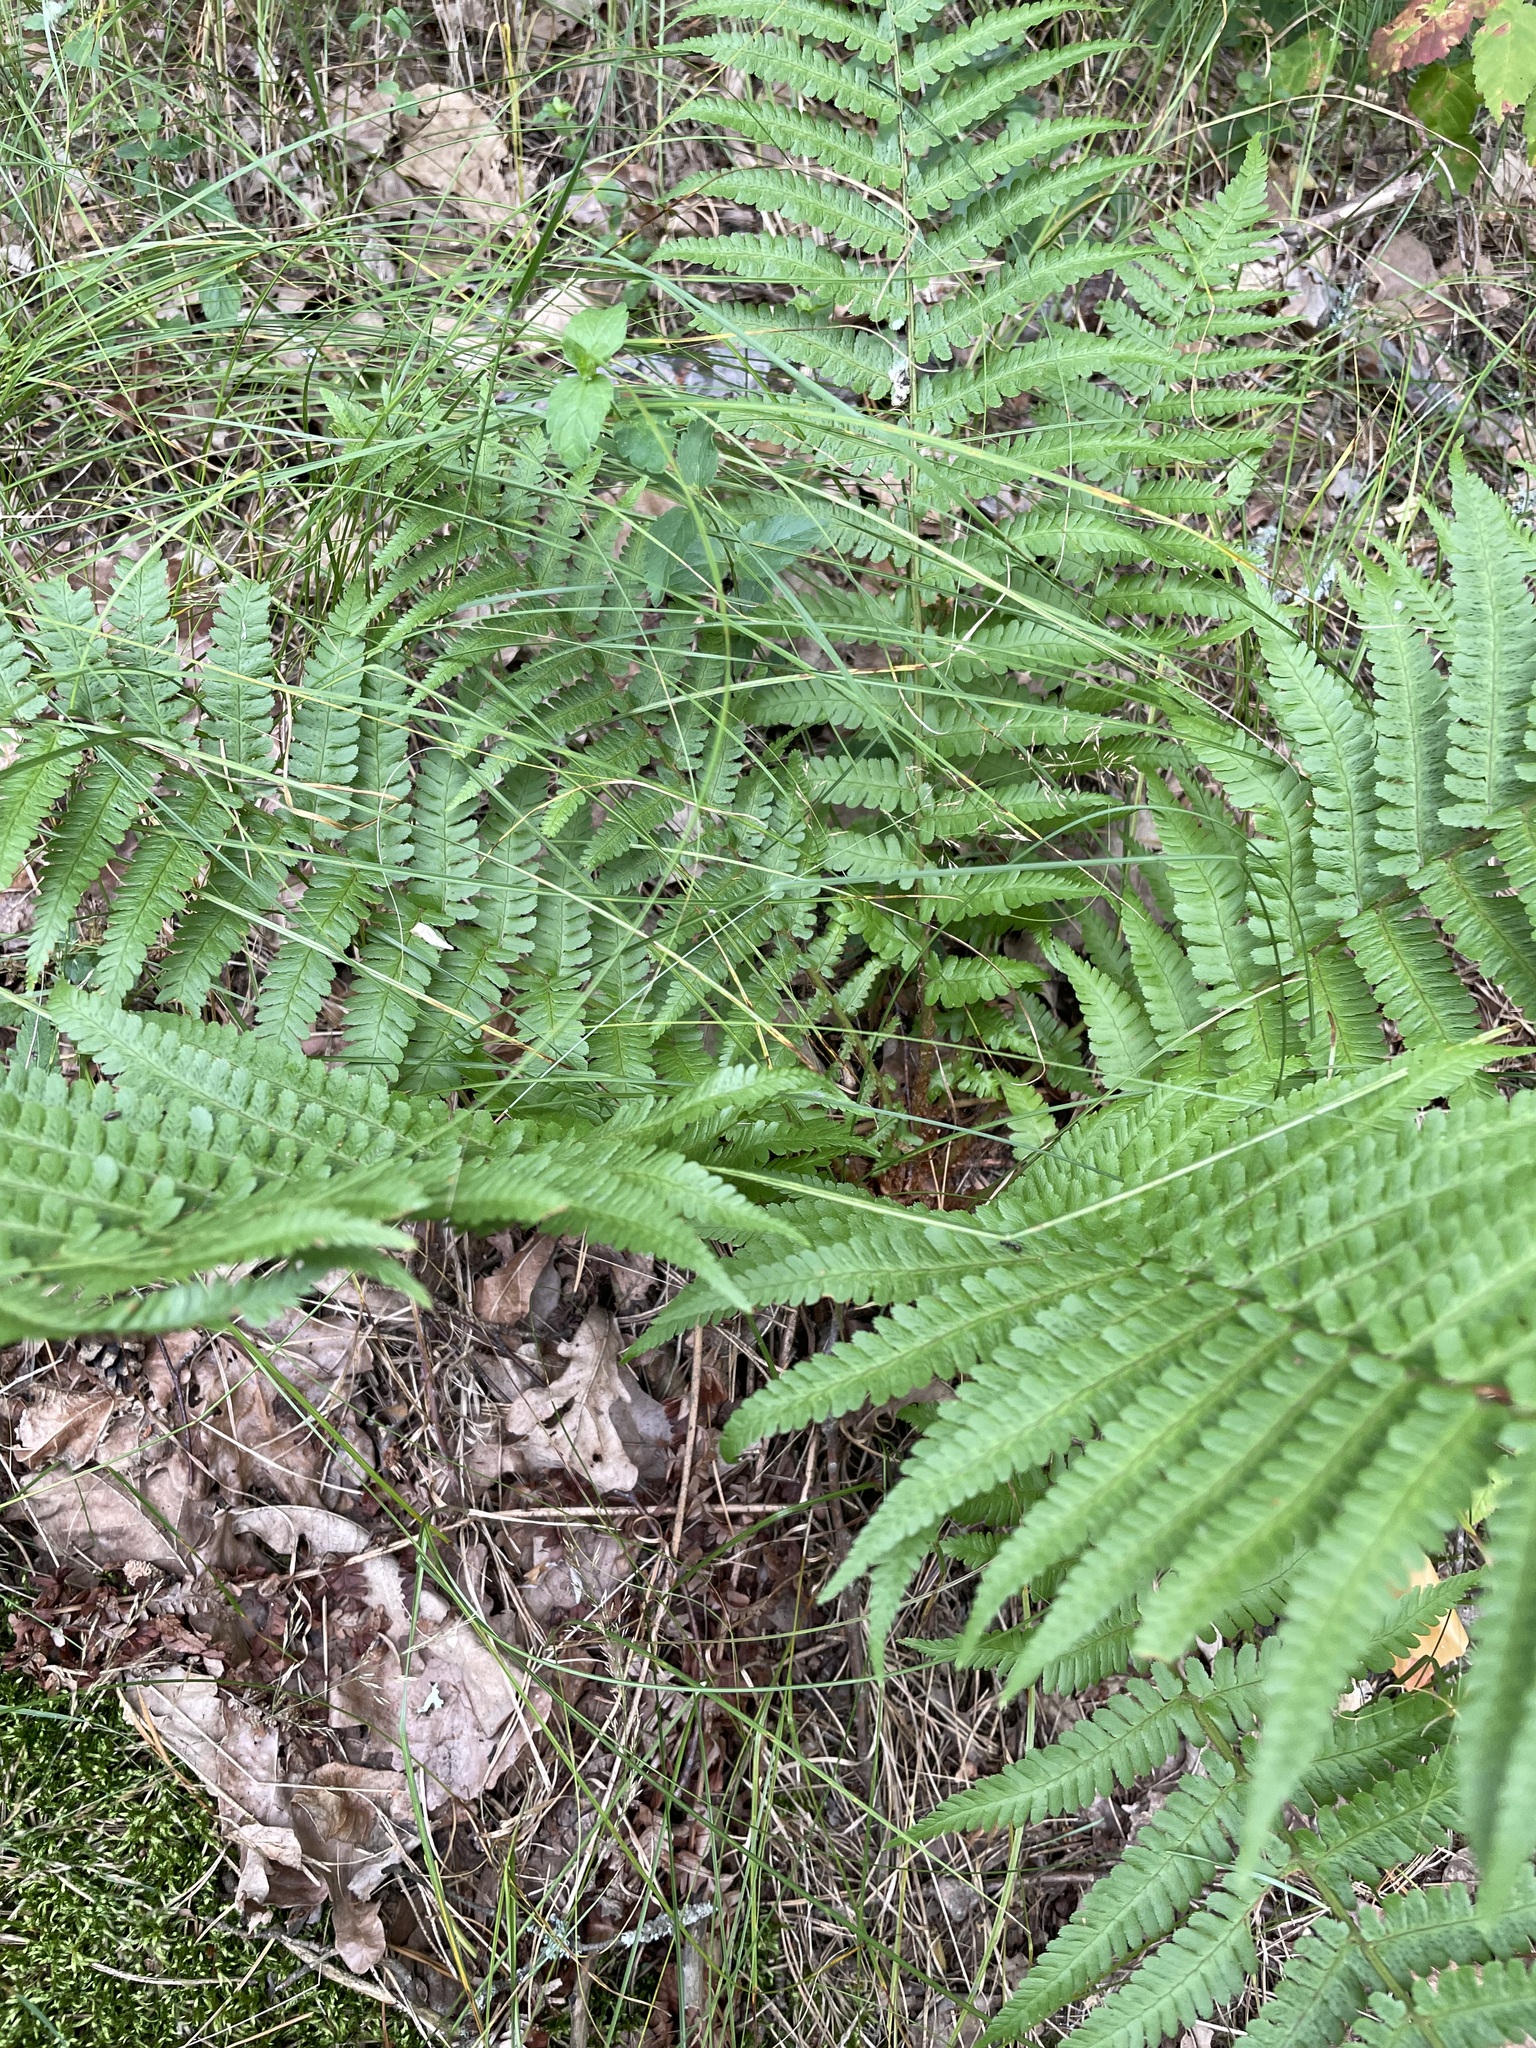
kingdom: Plantae
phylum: Tracheophyta
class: Polypodiopsida
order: Polypodiales
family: Dryopteridaceae
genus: Dryopteris
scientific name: Dryopteris filix-mas
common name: Male fern
